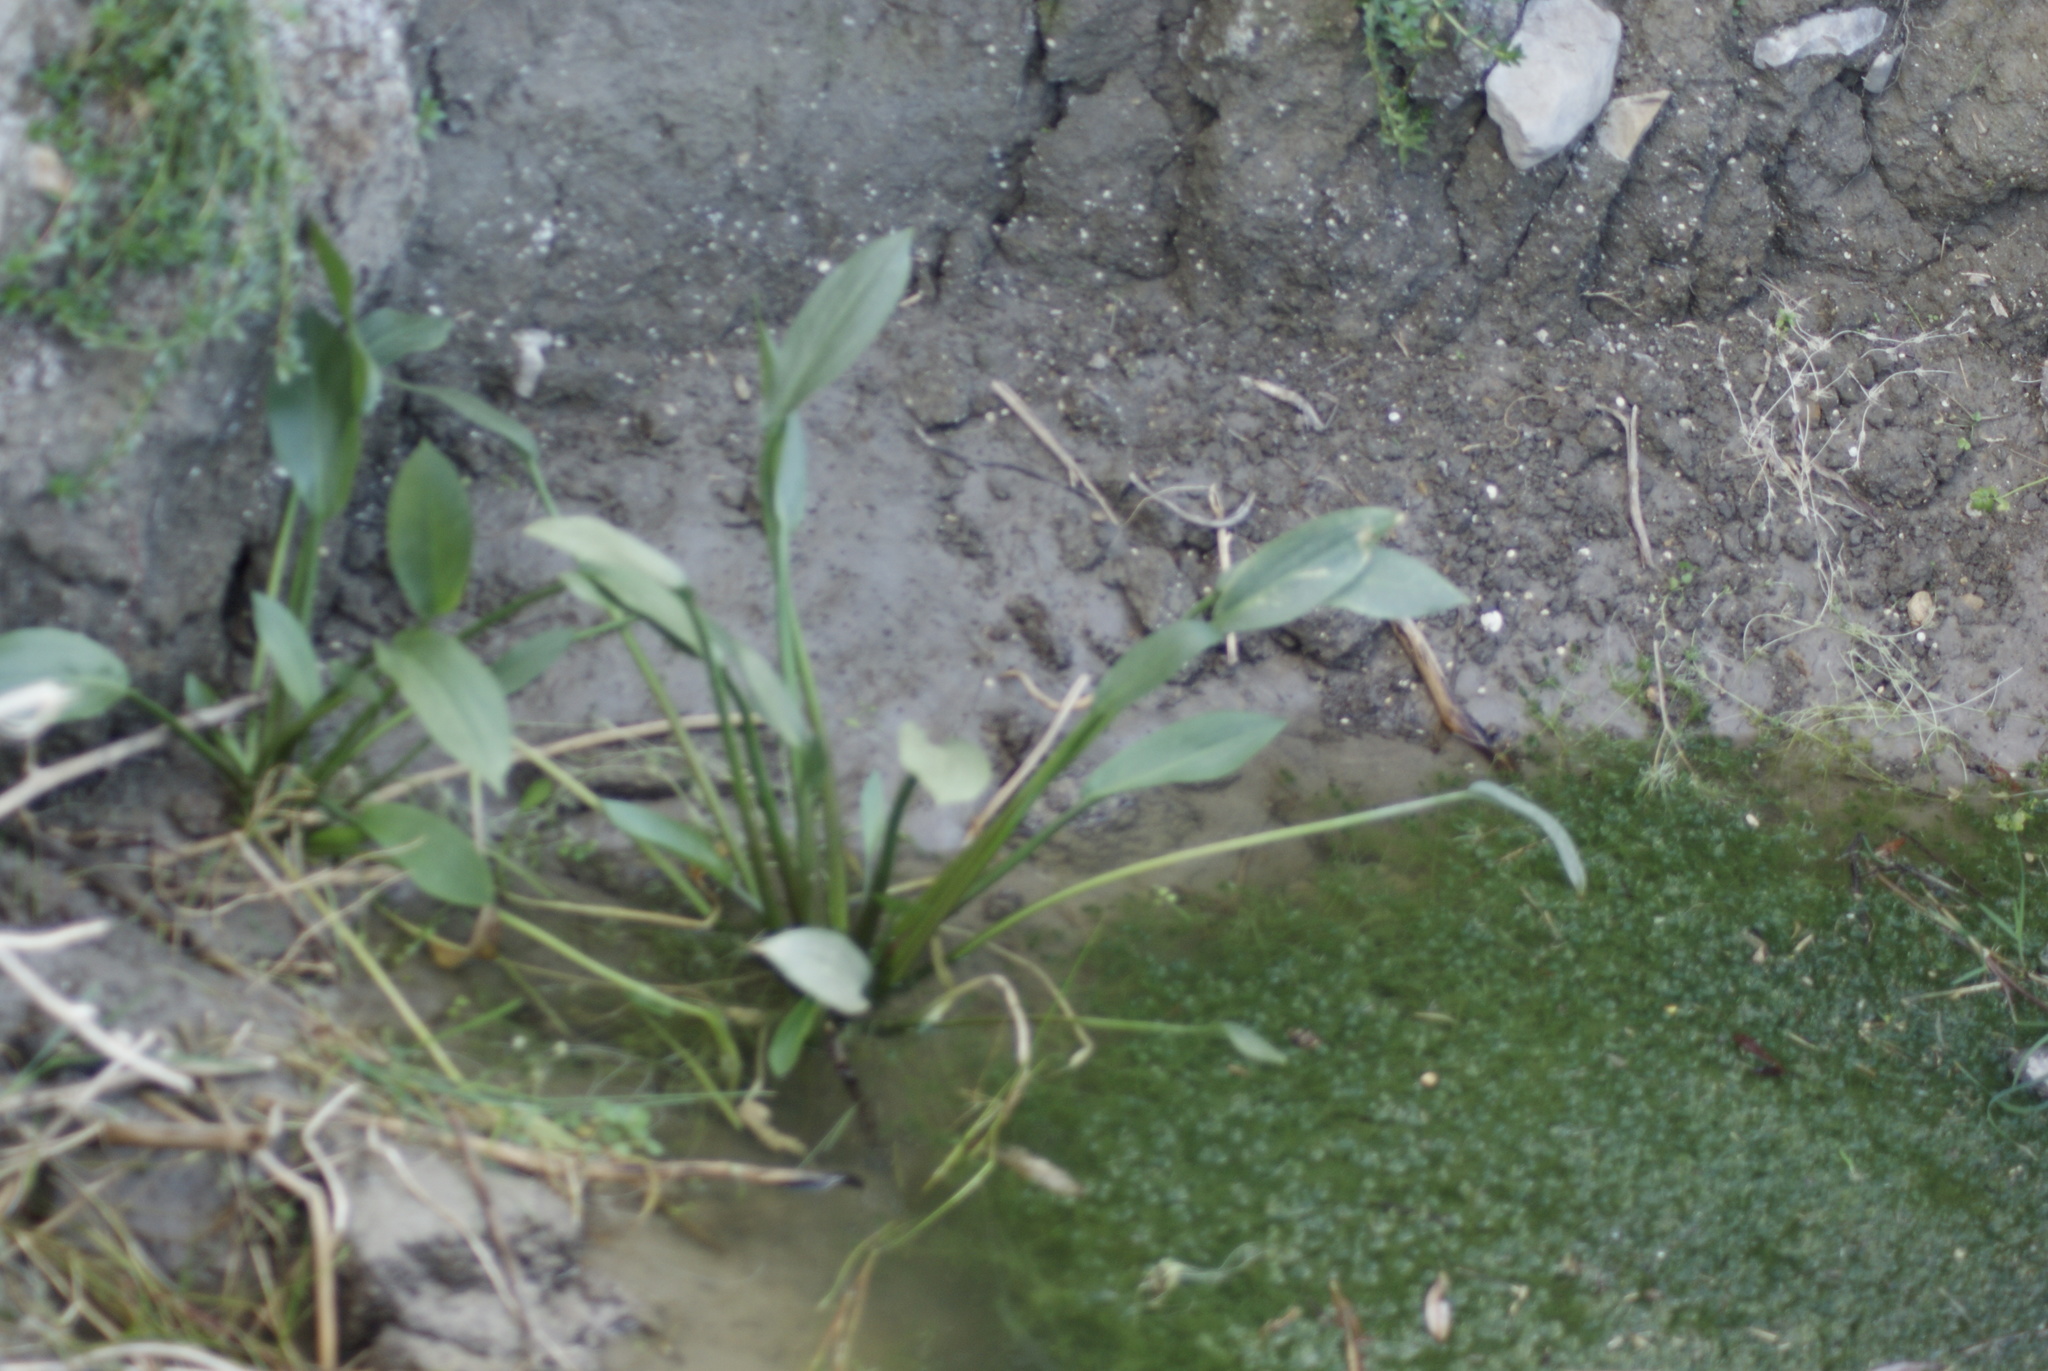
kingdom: Plantae
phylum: Tracheophyta
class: Liliopsida
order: Alismatales
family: Alismataceae
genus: Alisma
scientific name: Alisma plantago-aquatica
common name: Water-plantain
